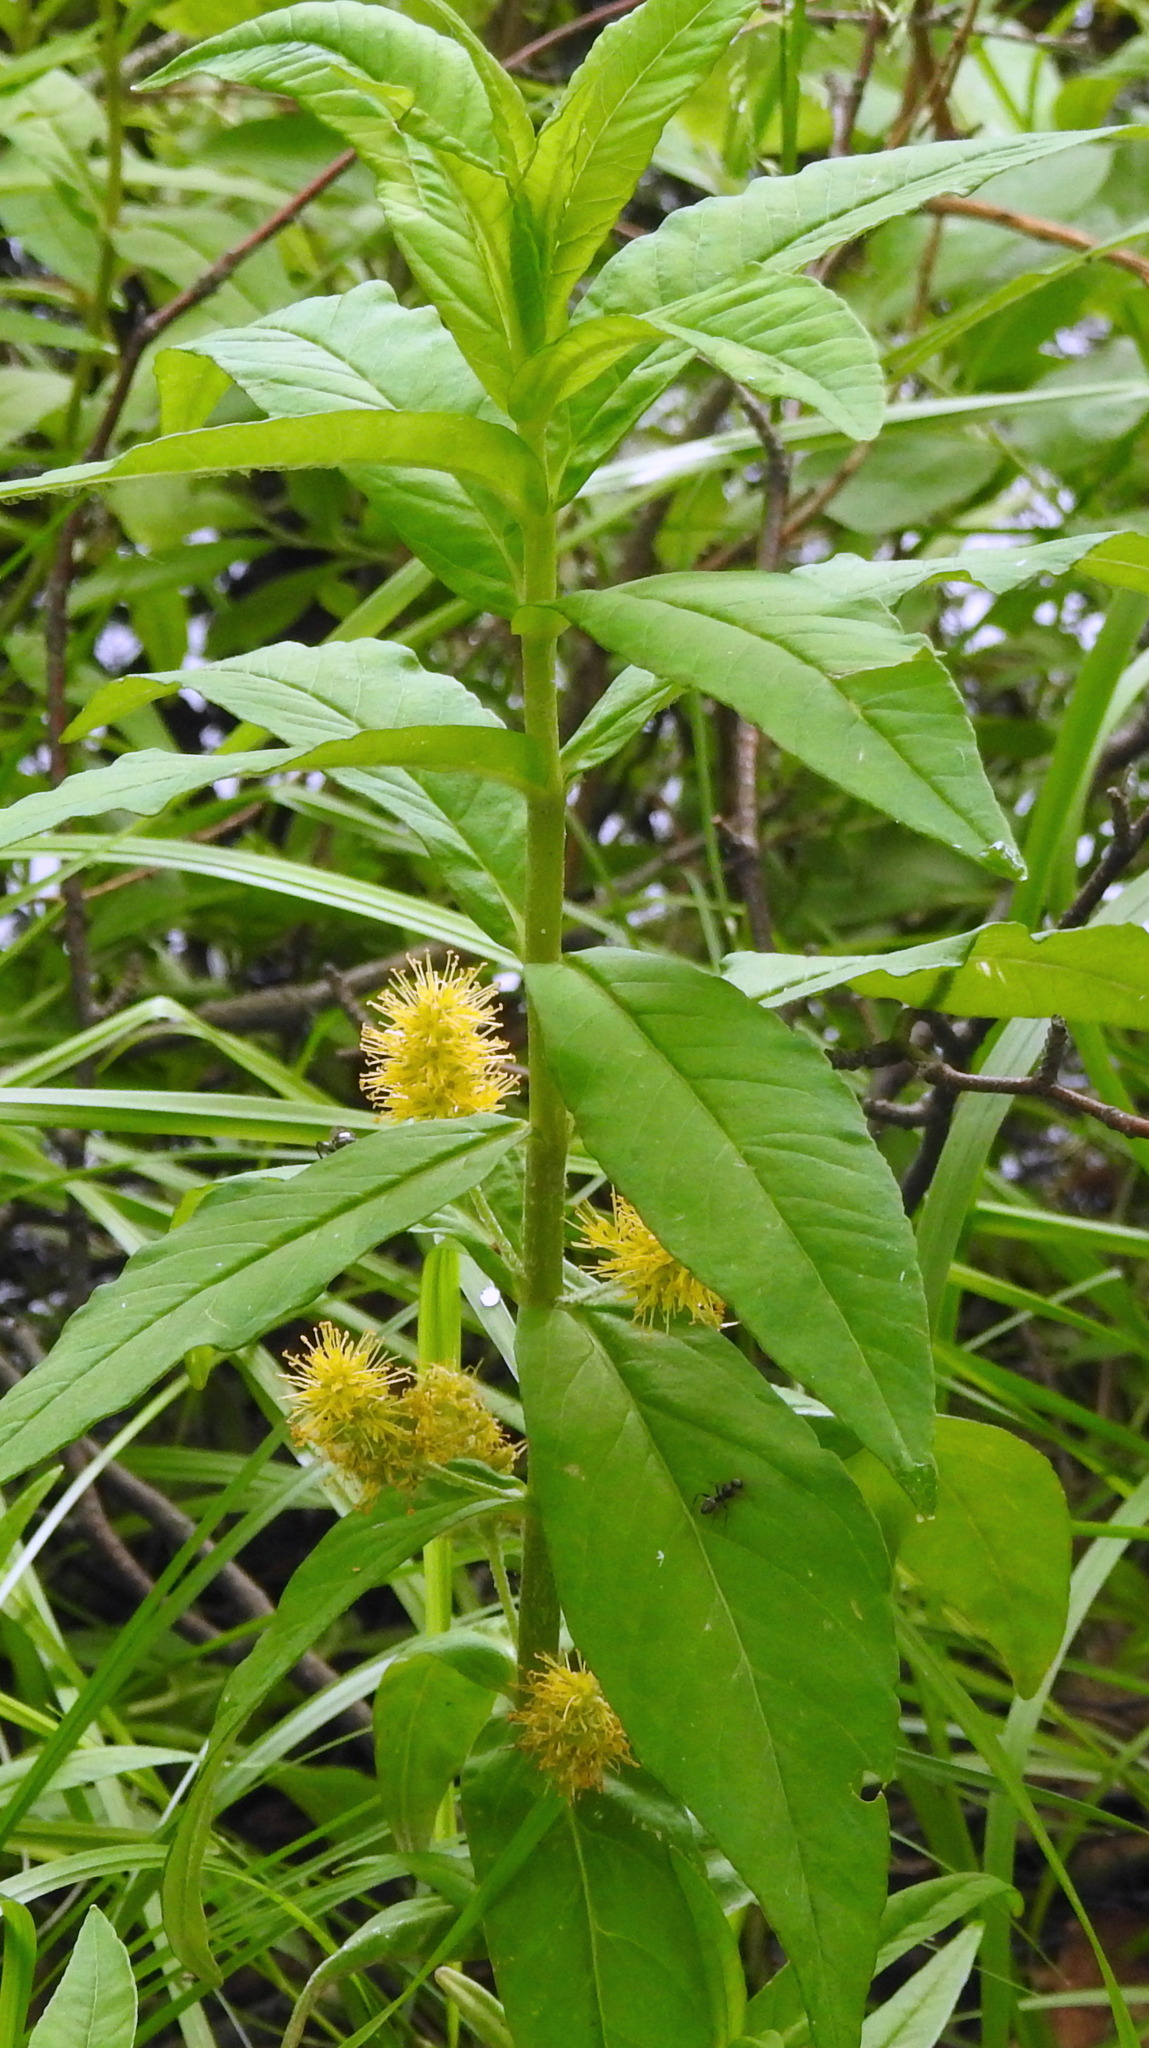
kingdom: Plantae
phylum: Tracheophyta
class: Magnoliopsida
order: Ericales
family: Primulaceae
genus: Lysimachia
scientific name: Lysimachia thyrsiflora
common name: Tufted loosestrife
